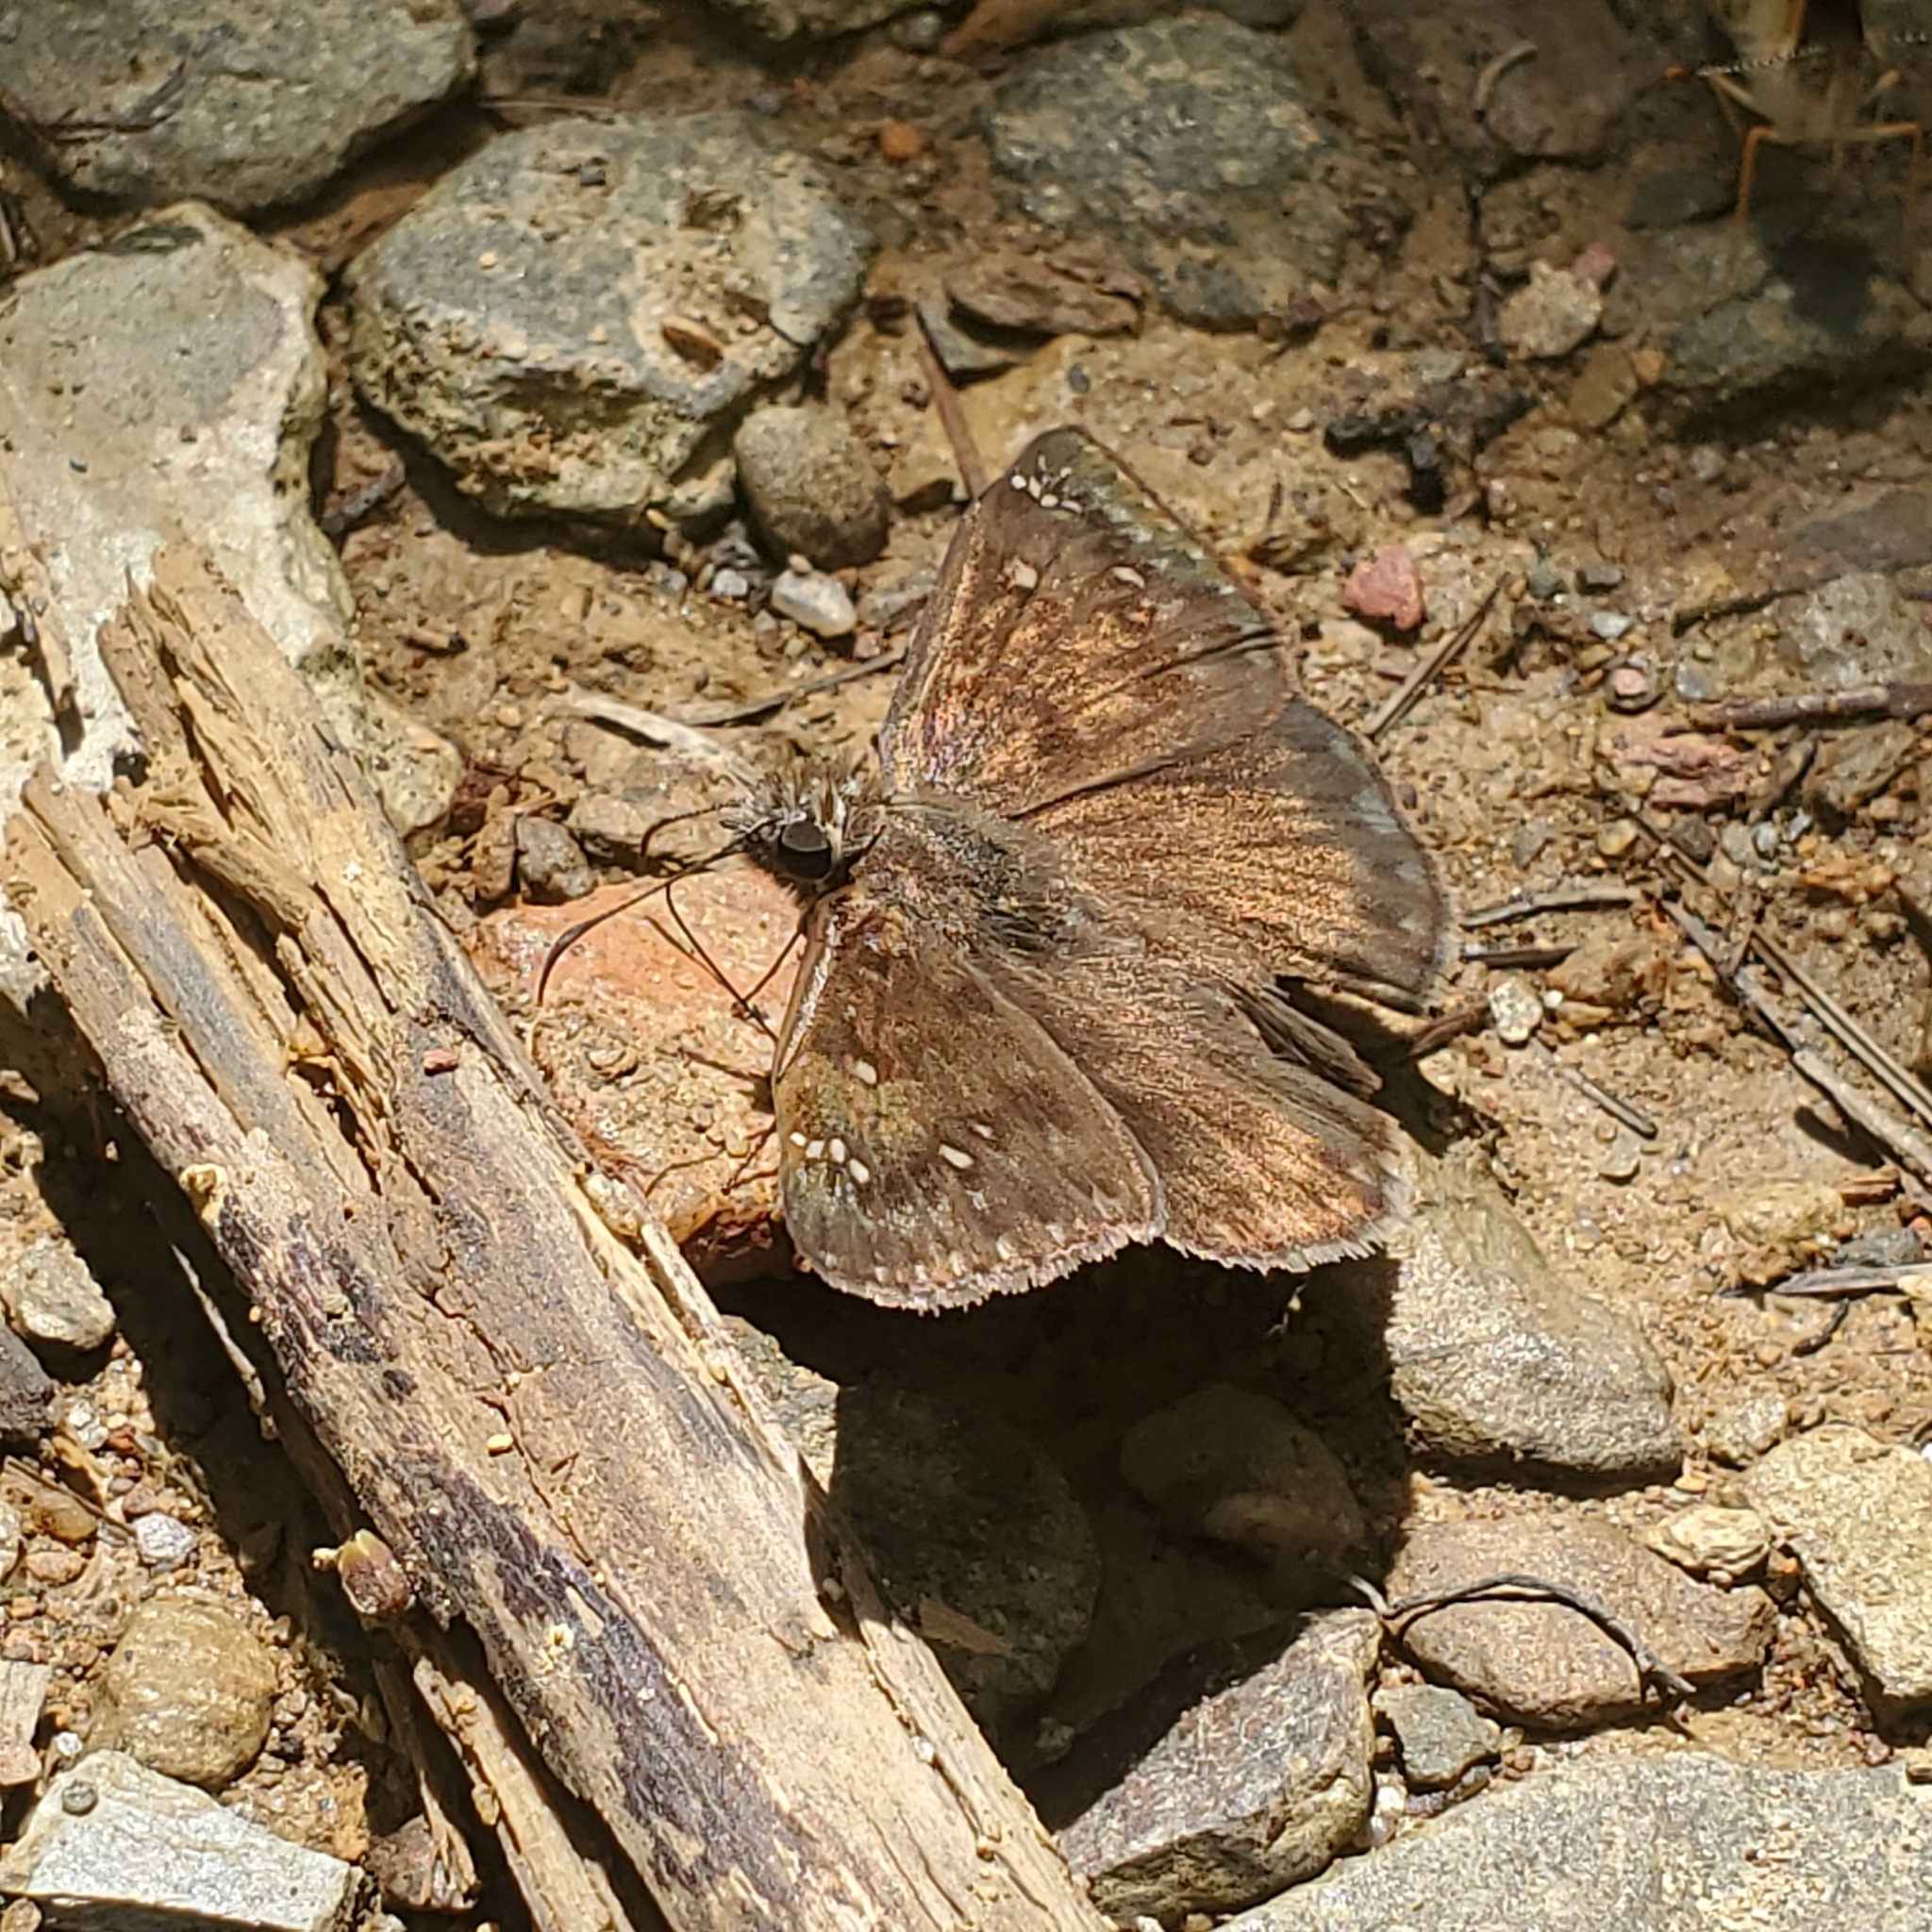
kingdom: Animalia
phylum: Arthropoda
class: Insecta
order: Lepidoptera
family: Hesperiidae
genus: Erynnis
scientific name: Erynnis horatius
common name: Horace's duskywing
